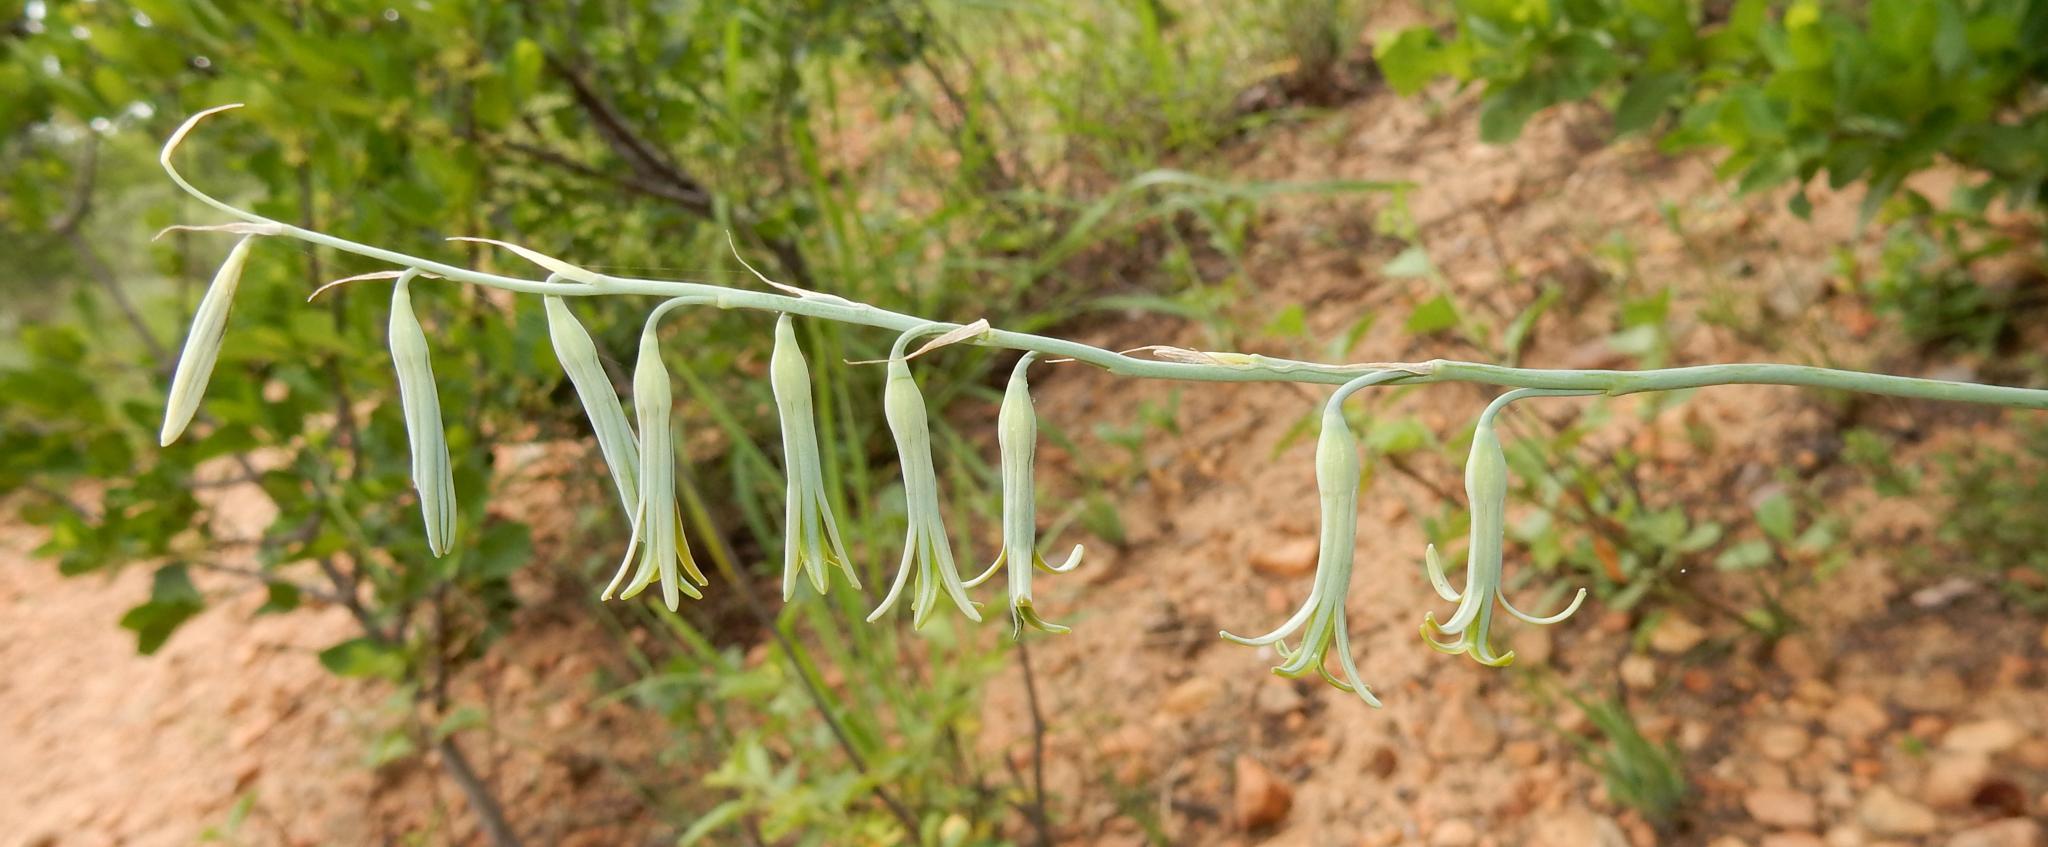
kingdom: Plantae
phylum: Tracheophyta
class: Liliopsida
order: Asparagales
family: Asparagaceae
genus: Dipcadi
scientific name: Dipcadi marlothii
